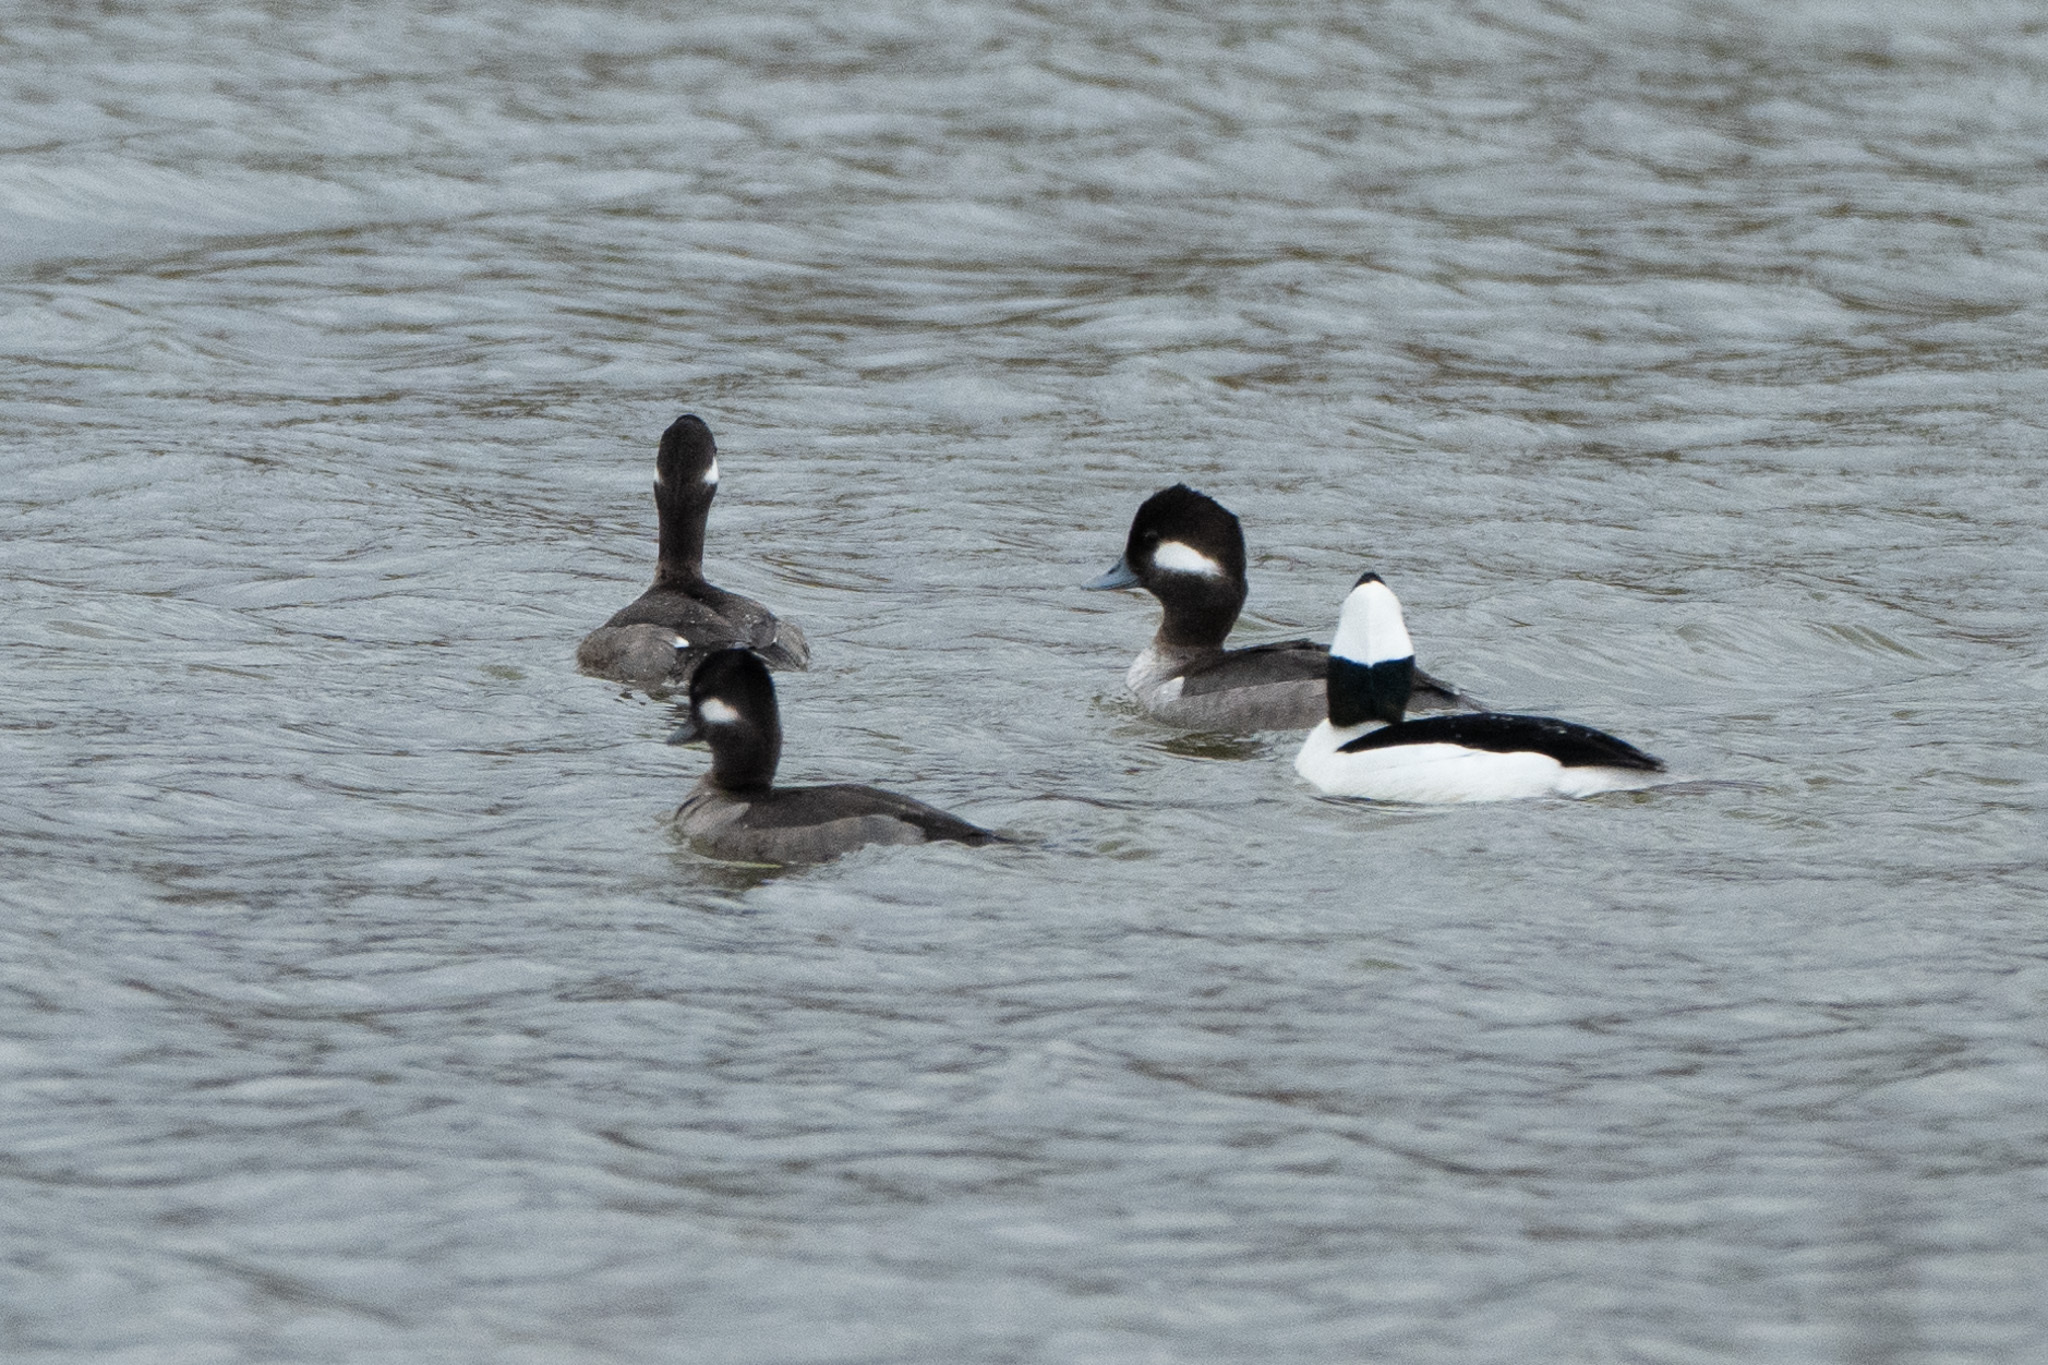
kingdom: Animalia
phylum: Chordata
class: Aves
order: Anseriformes
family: Anatidae
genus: Bucephala
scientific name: Bucephala albeola
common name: Bufflehead
